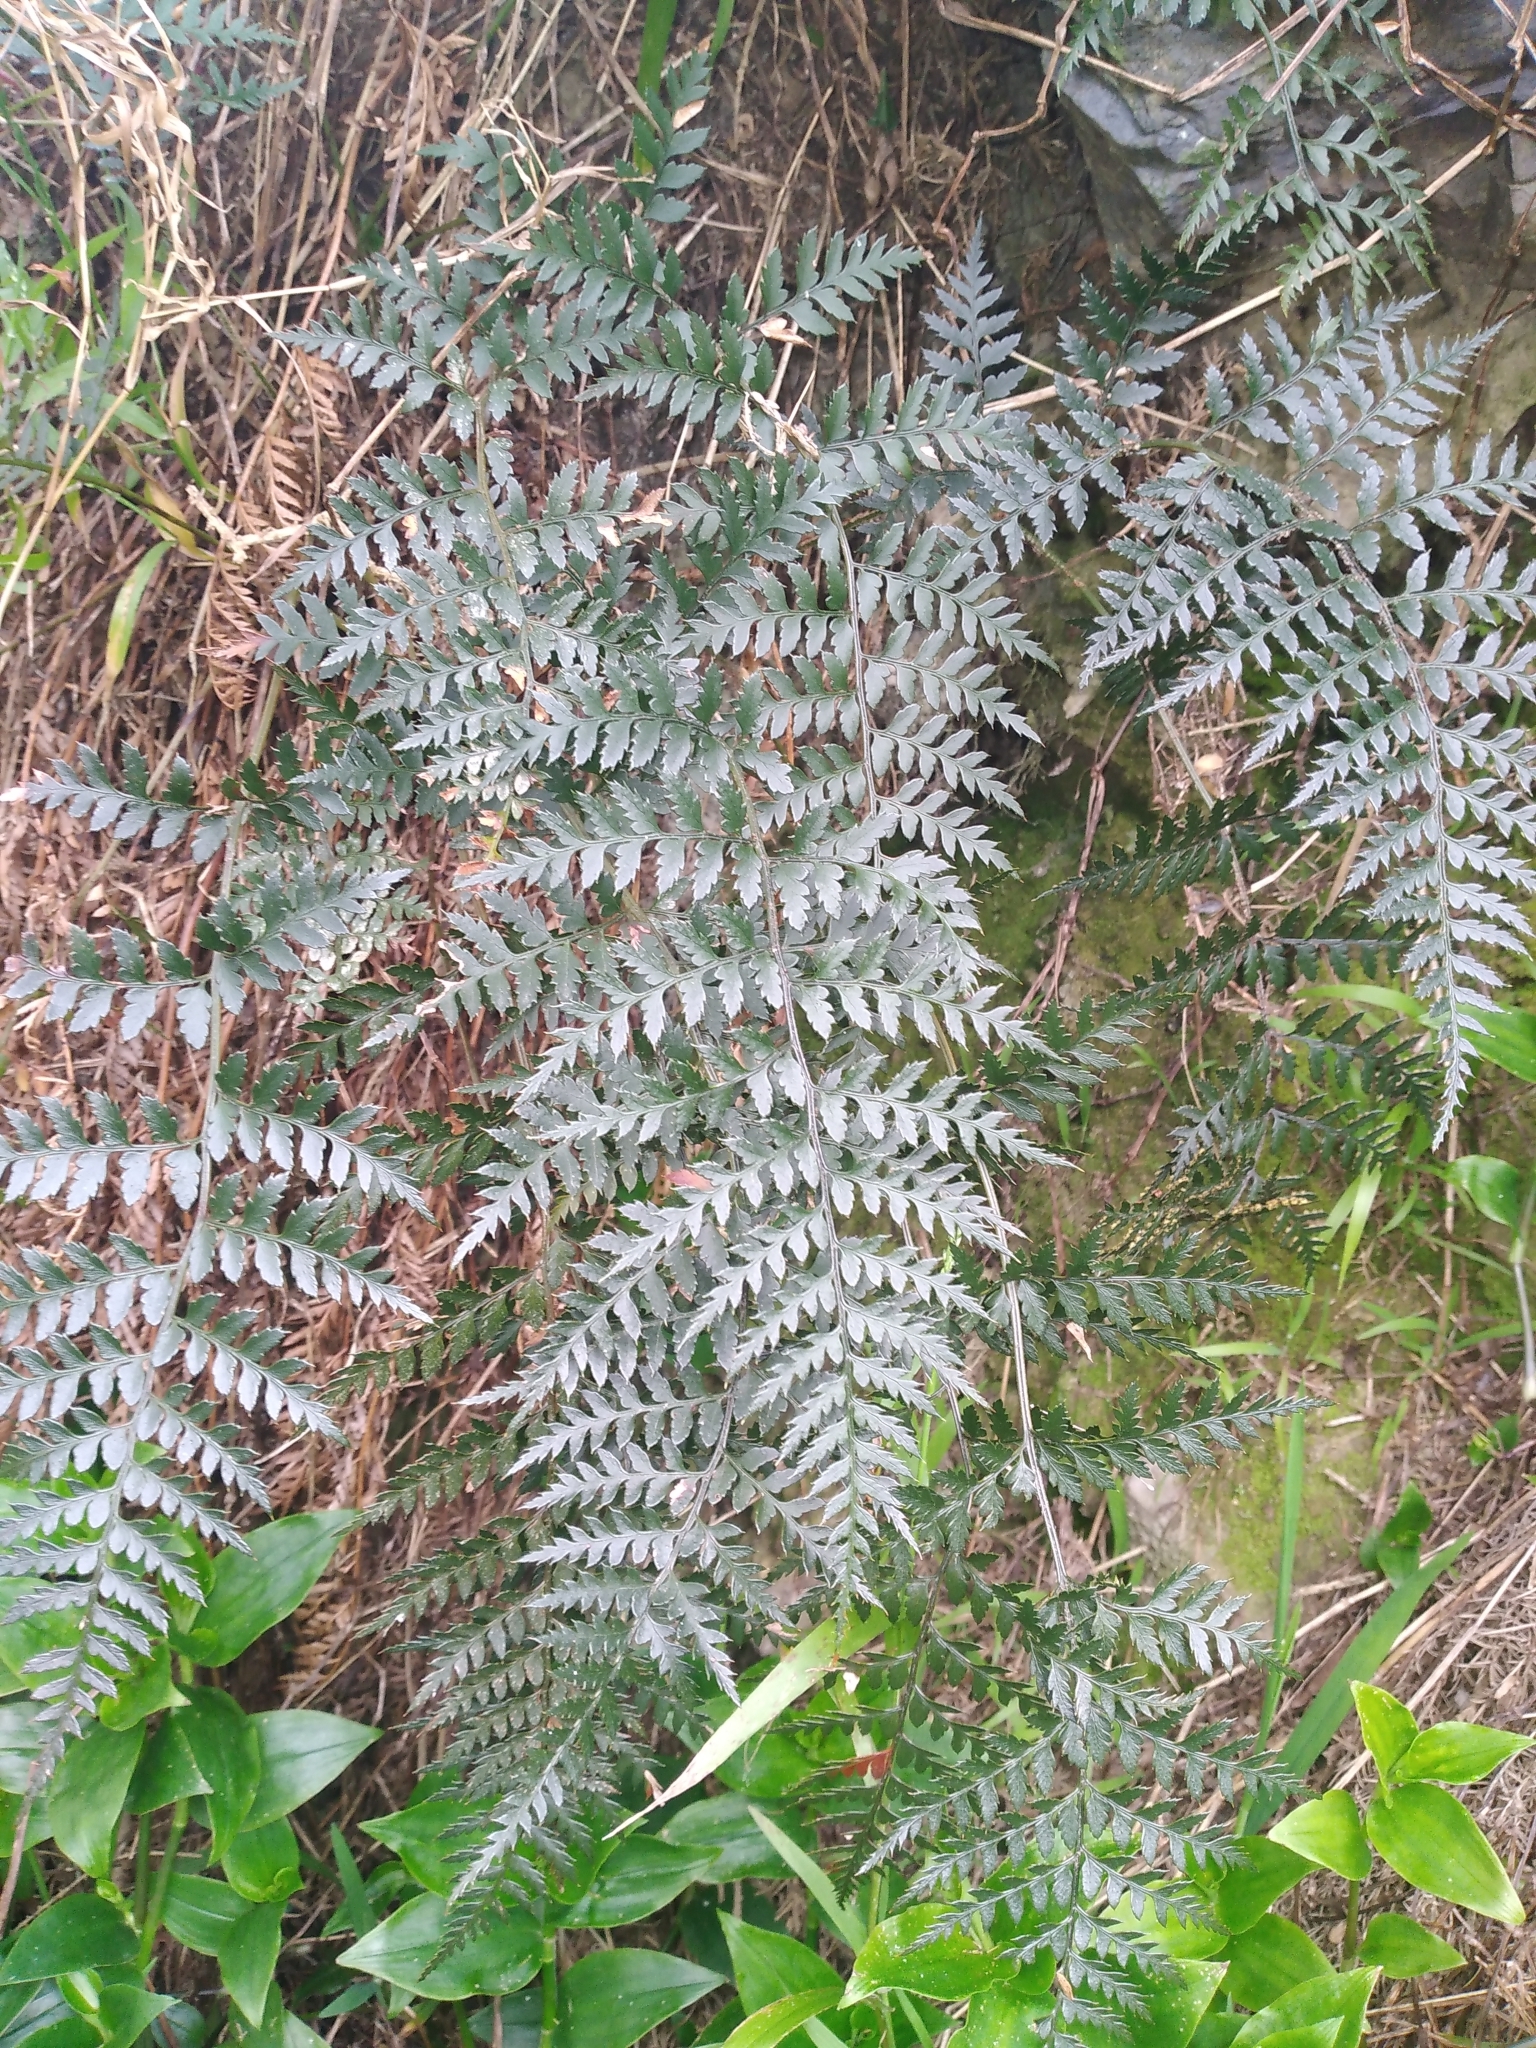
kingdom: Plantae
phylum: Tracheophyta
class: Polypodiopsida
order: Polypodiales
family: Dryopteridaceae
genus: Polystichum
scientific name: Polystichum oculatum
